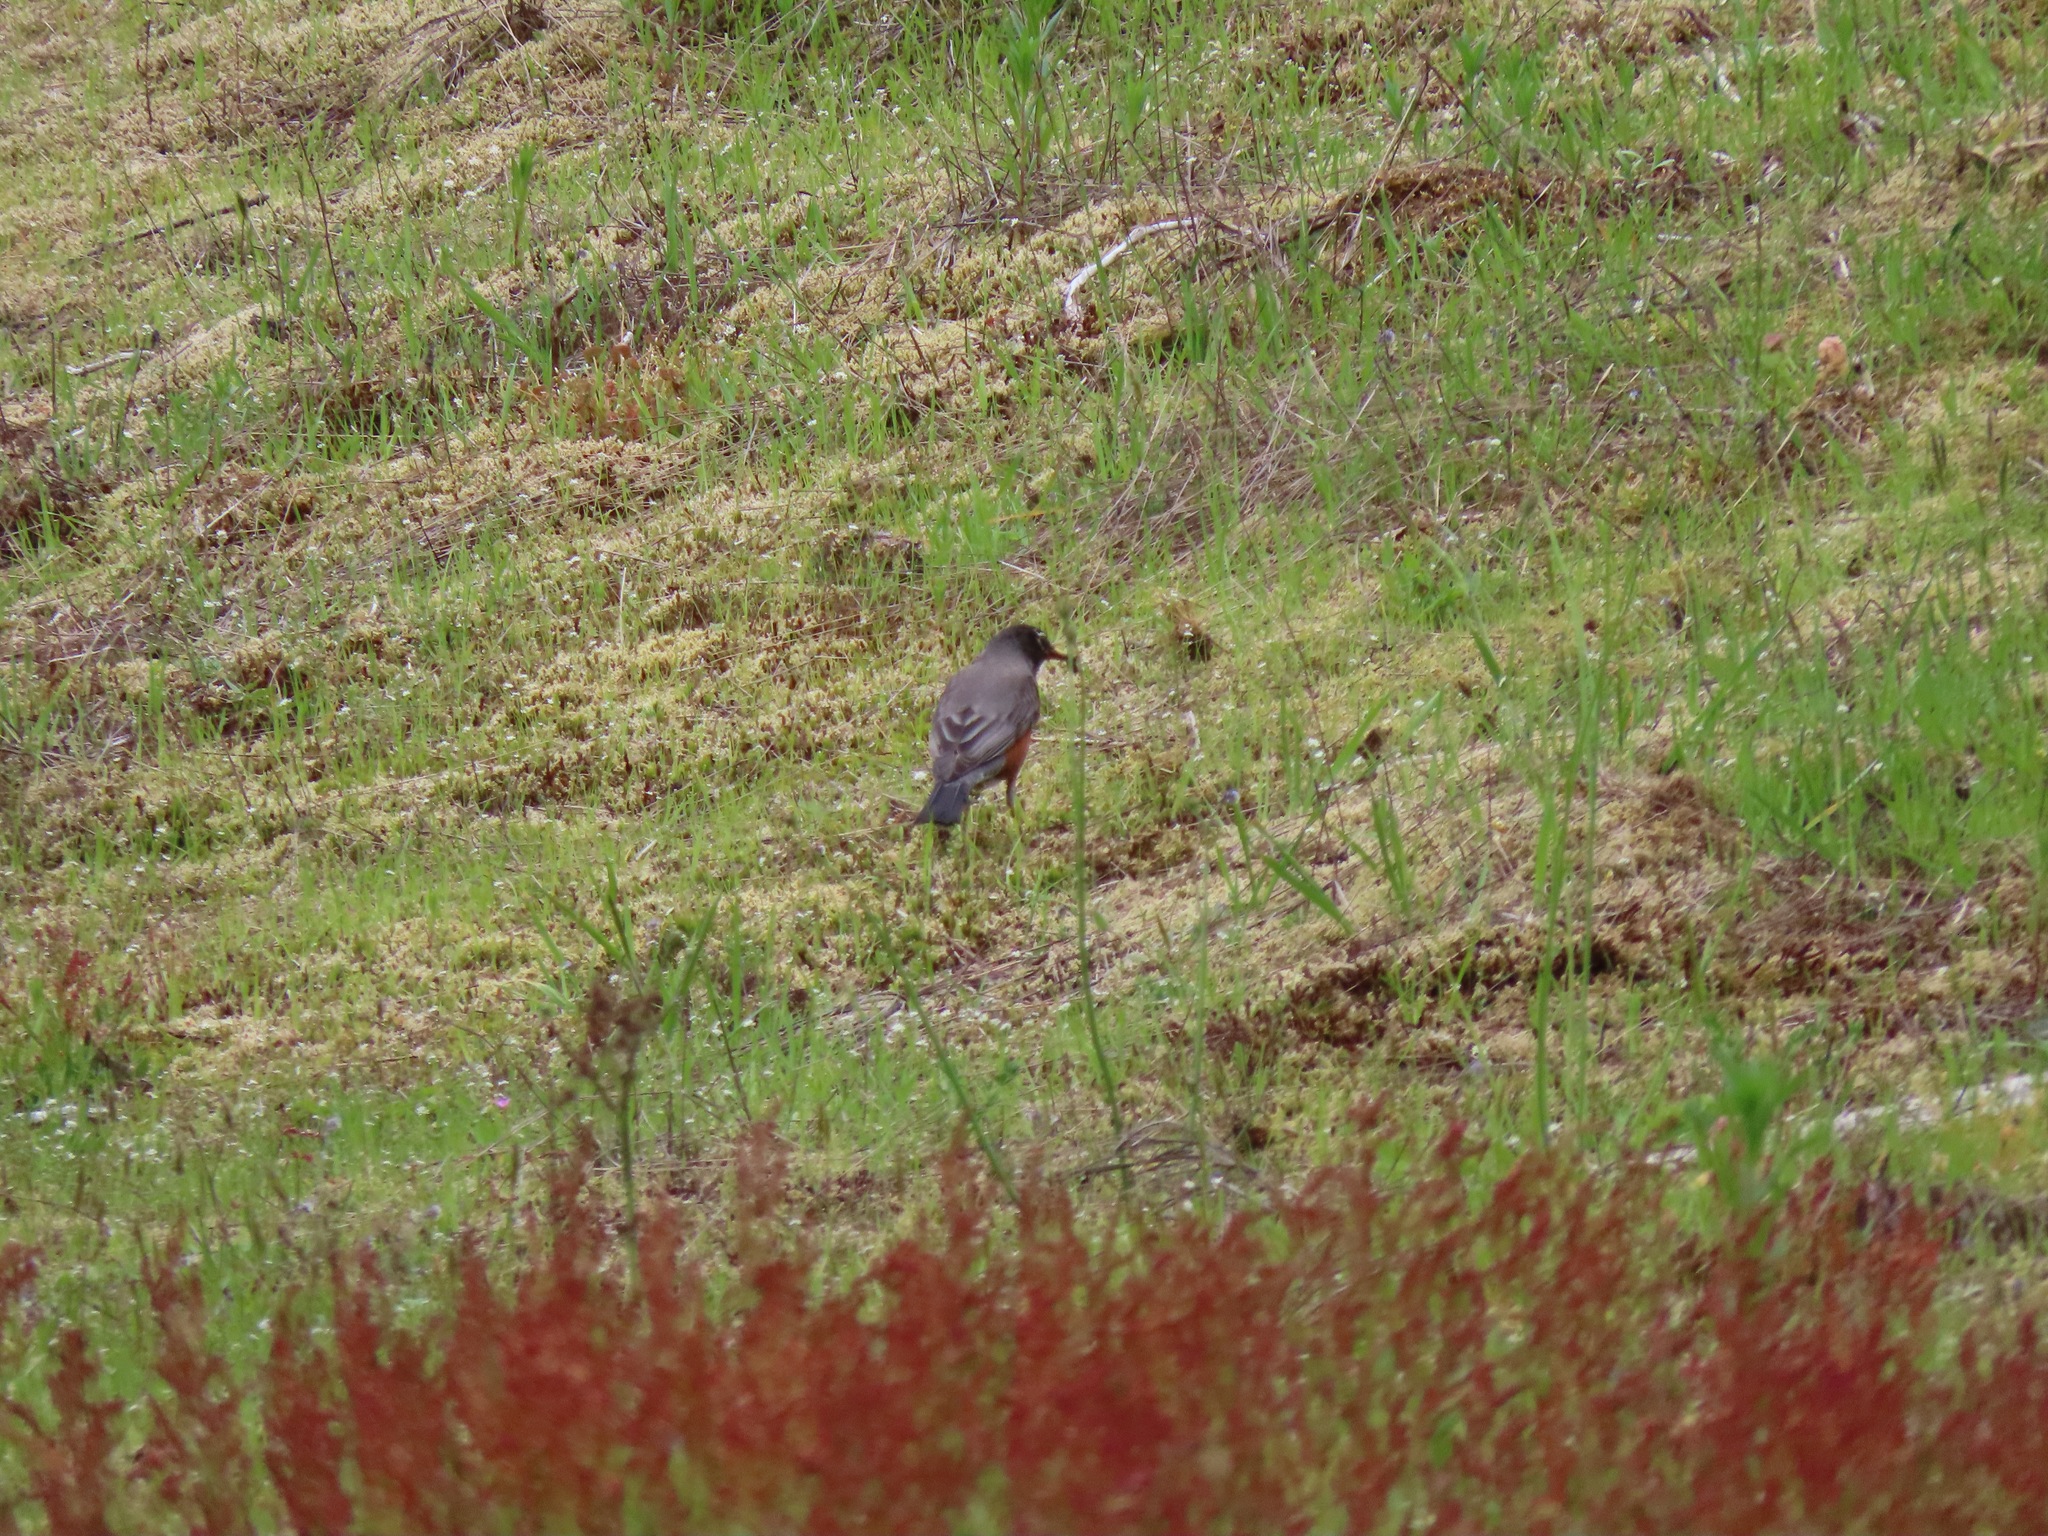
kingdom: Animalia
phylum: Chordata
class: Aves
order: Passeriformes
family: Turdidae
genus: Turdus
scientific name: Turdus migratorius
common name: American robin
